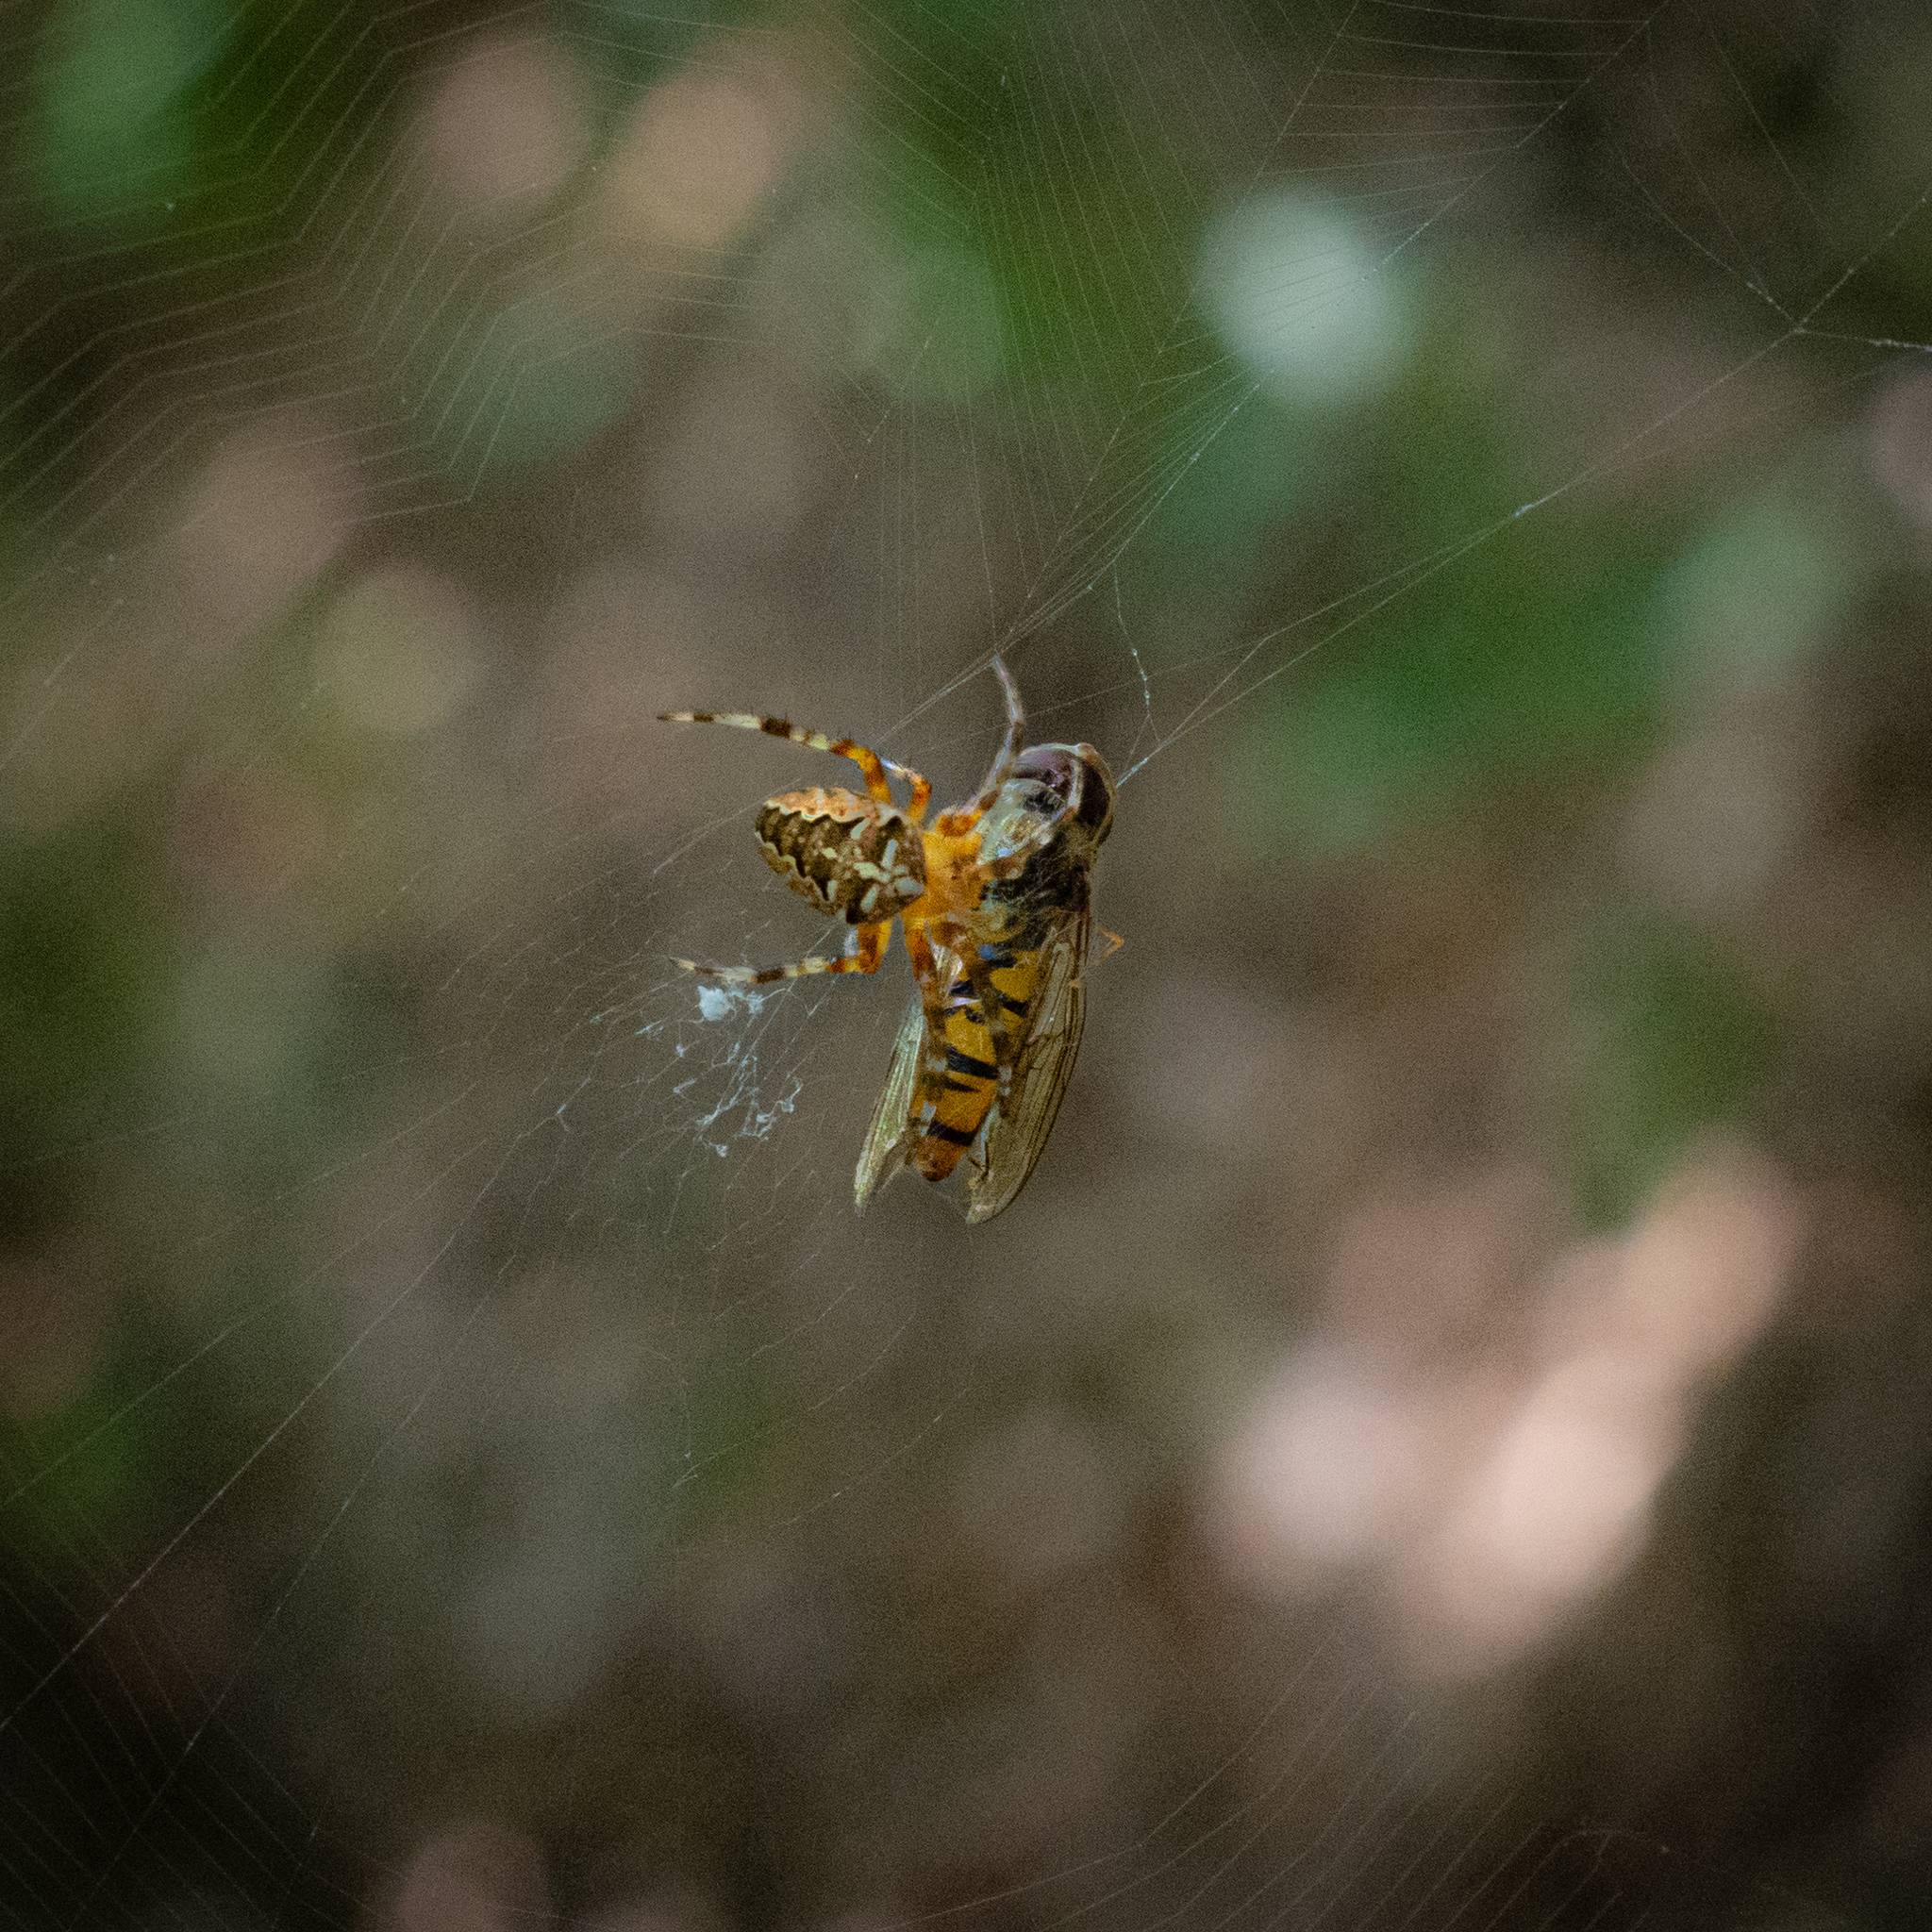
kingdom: Animalia
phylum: Arthropoda
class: Arachnida
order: Araneae
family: Araneidae
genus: Araneus
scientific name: Araneus diadematus
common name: Cross orbweaver
